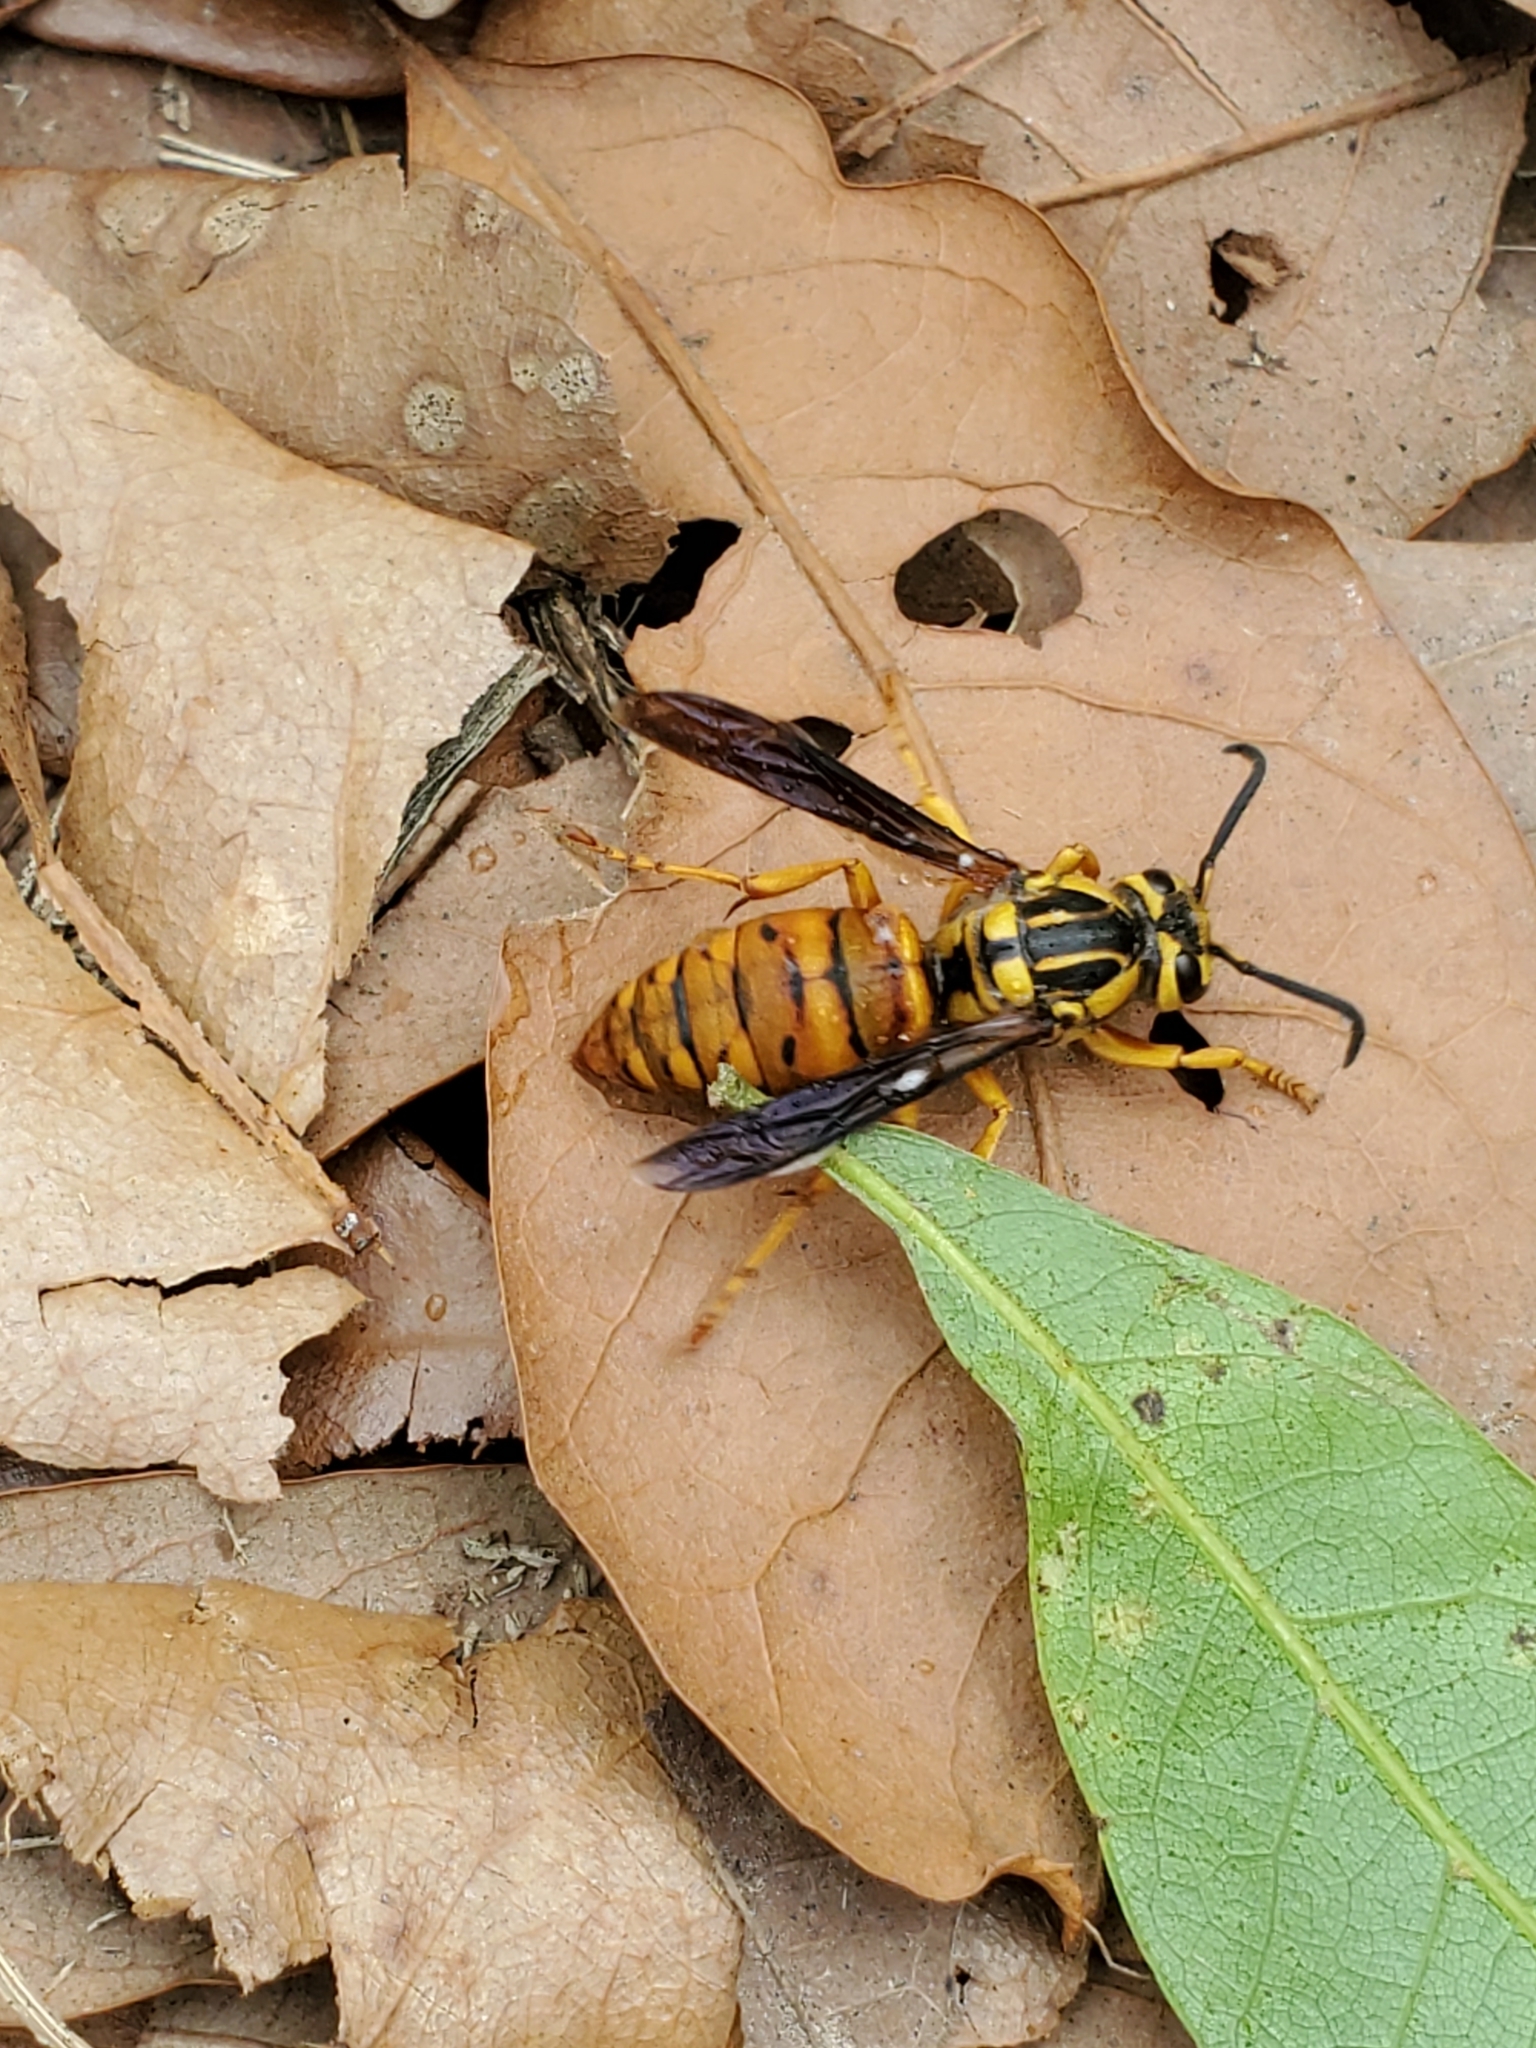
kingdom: Animalia
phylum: Arthropoda
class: Insecta
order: Hymenoptera
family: Vespidae
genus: Vespula
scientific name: Vespula squamosa
